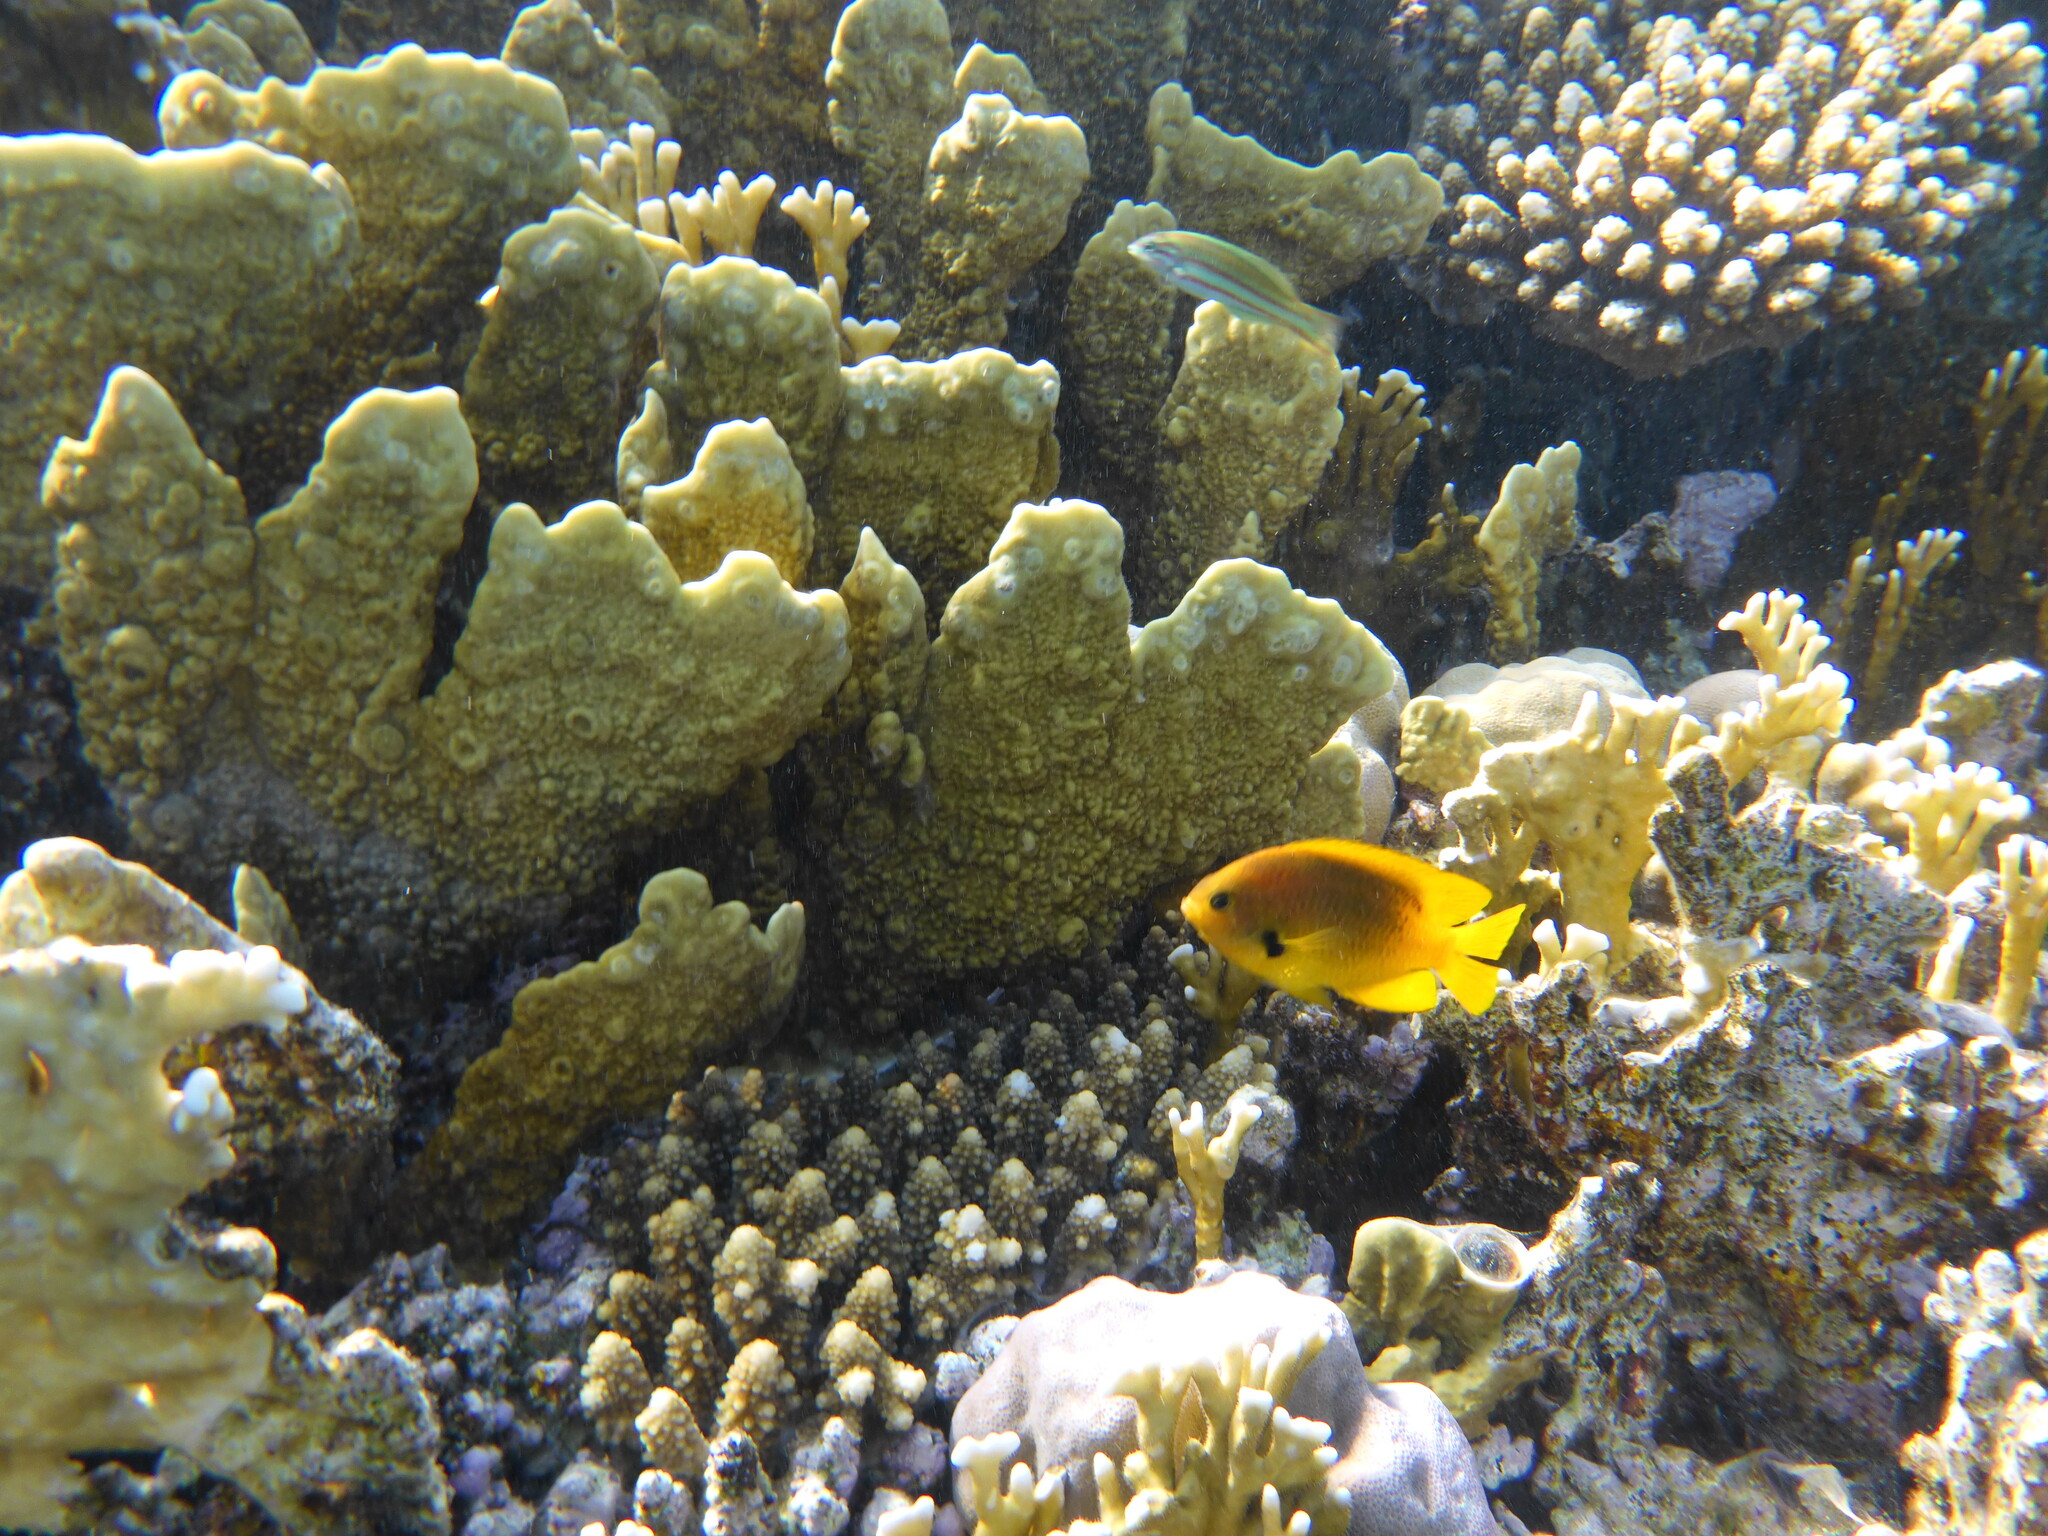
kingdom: Animalia
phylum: Chordata
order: Perciformes
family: Pomacentridae
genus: Pomacentrus
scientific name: Pomacentrus sulfureus
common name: Sulfur damsel
